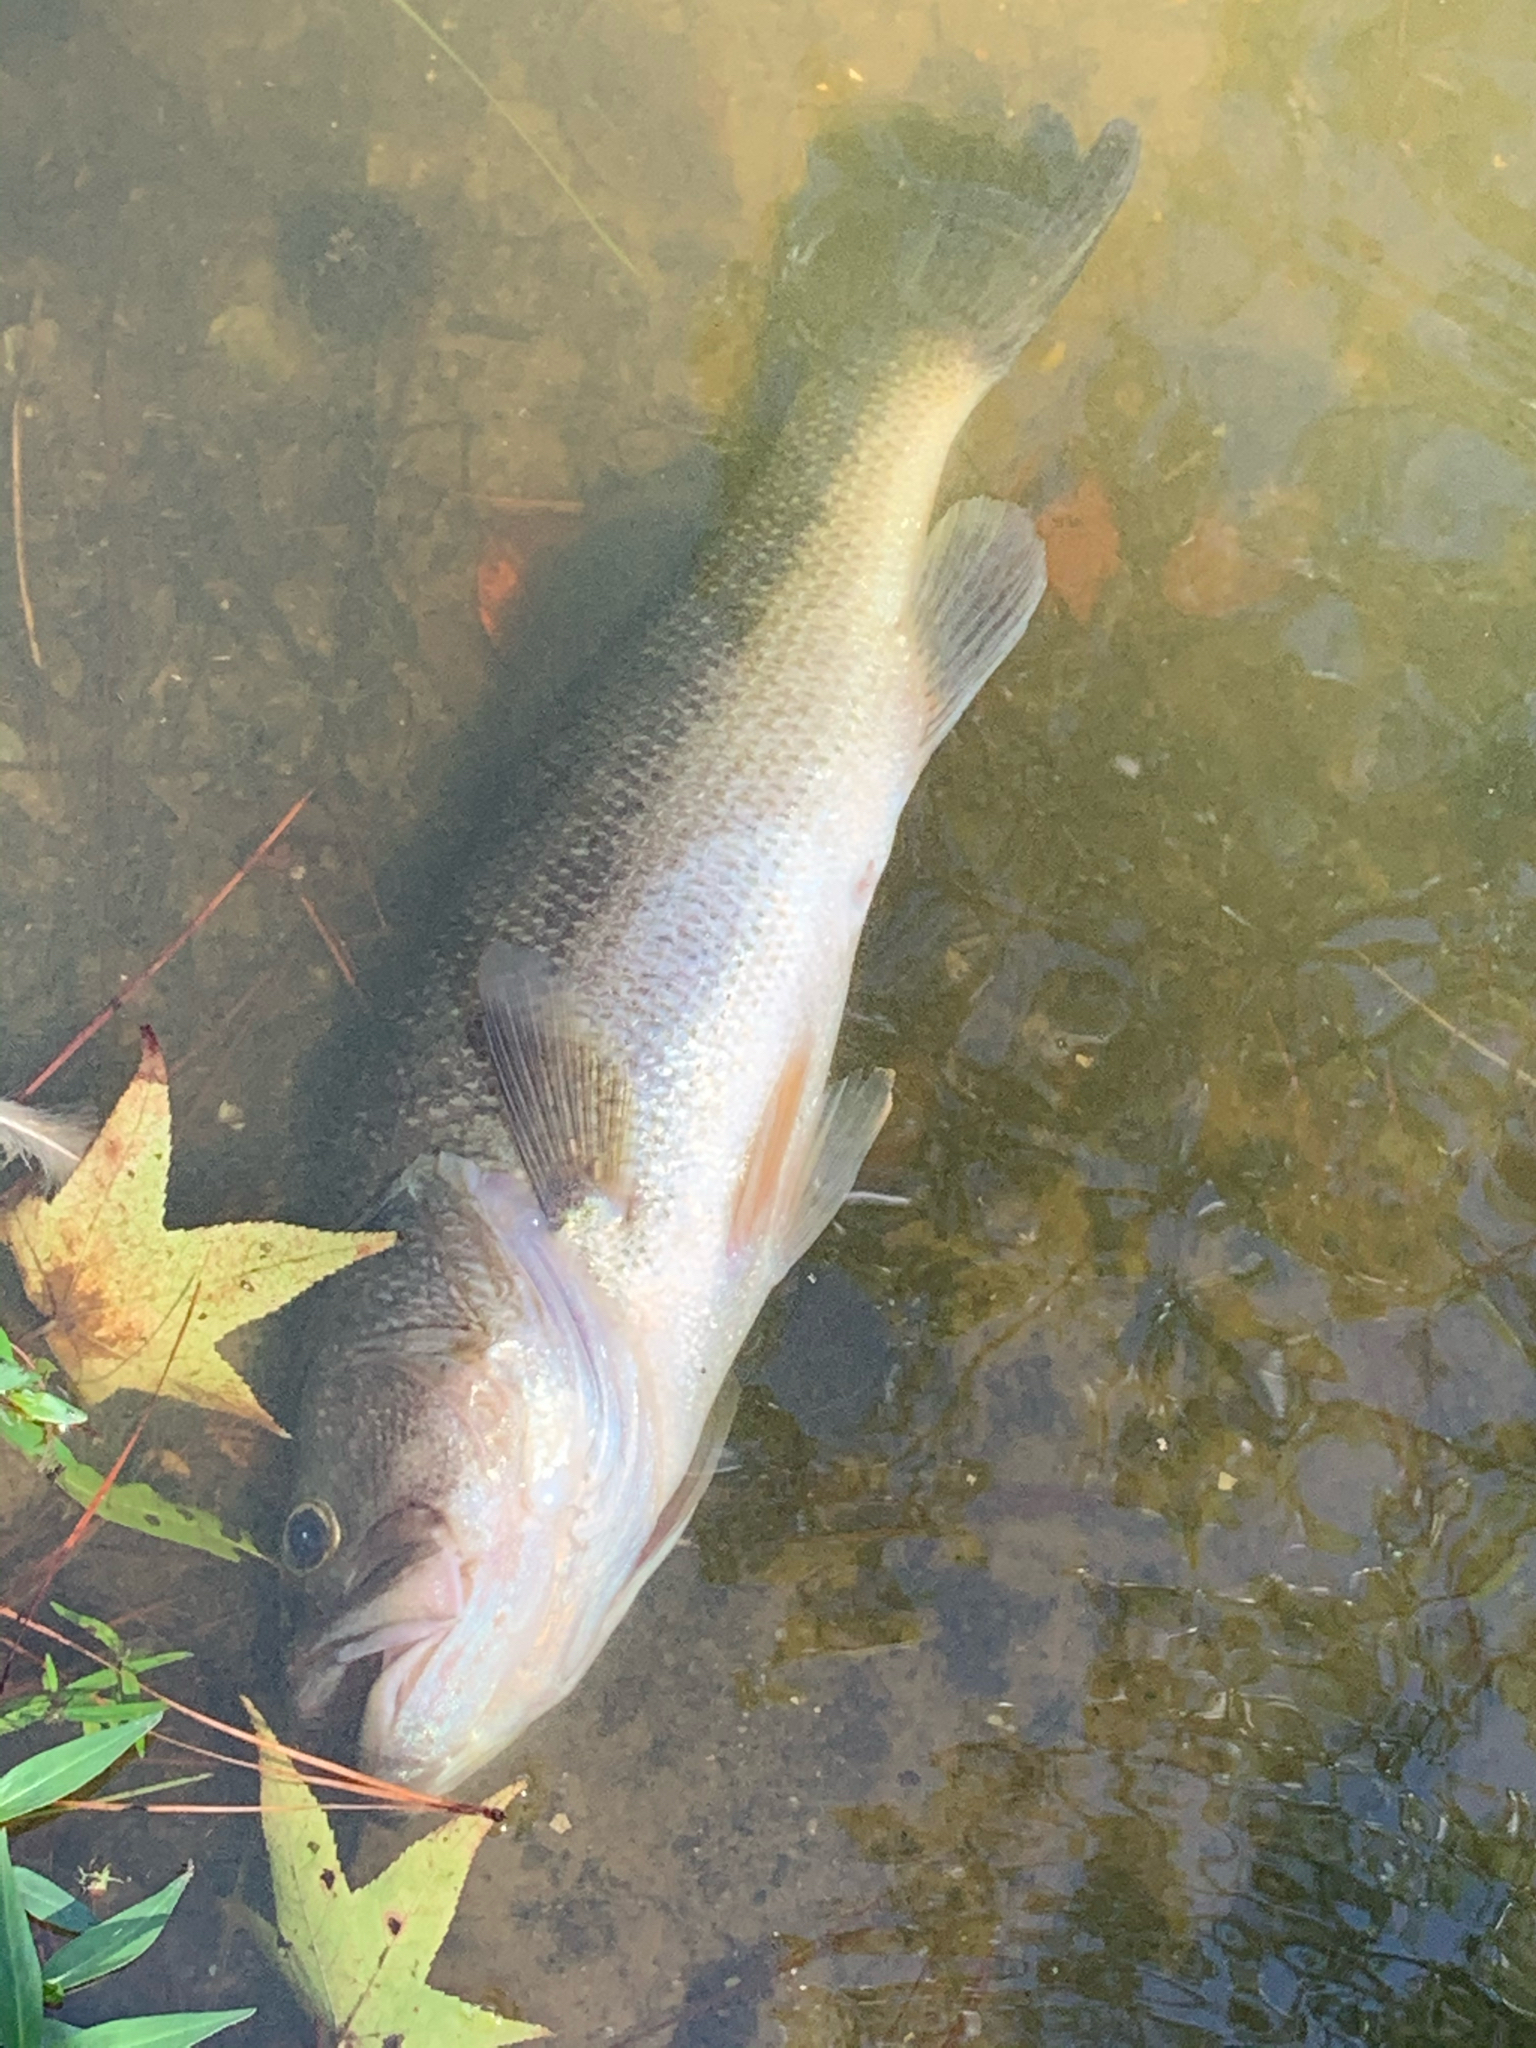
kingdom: Animalia
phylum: Chordata
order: Perciformes
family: Centrarchidae
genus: Micropterus
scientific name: Micropterus
